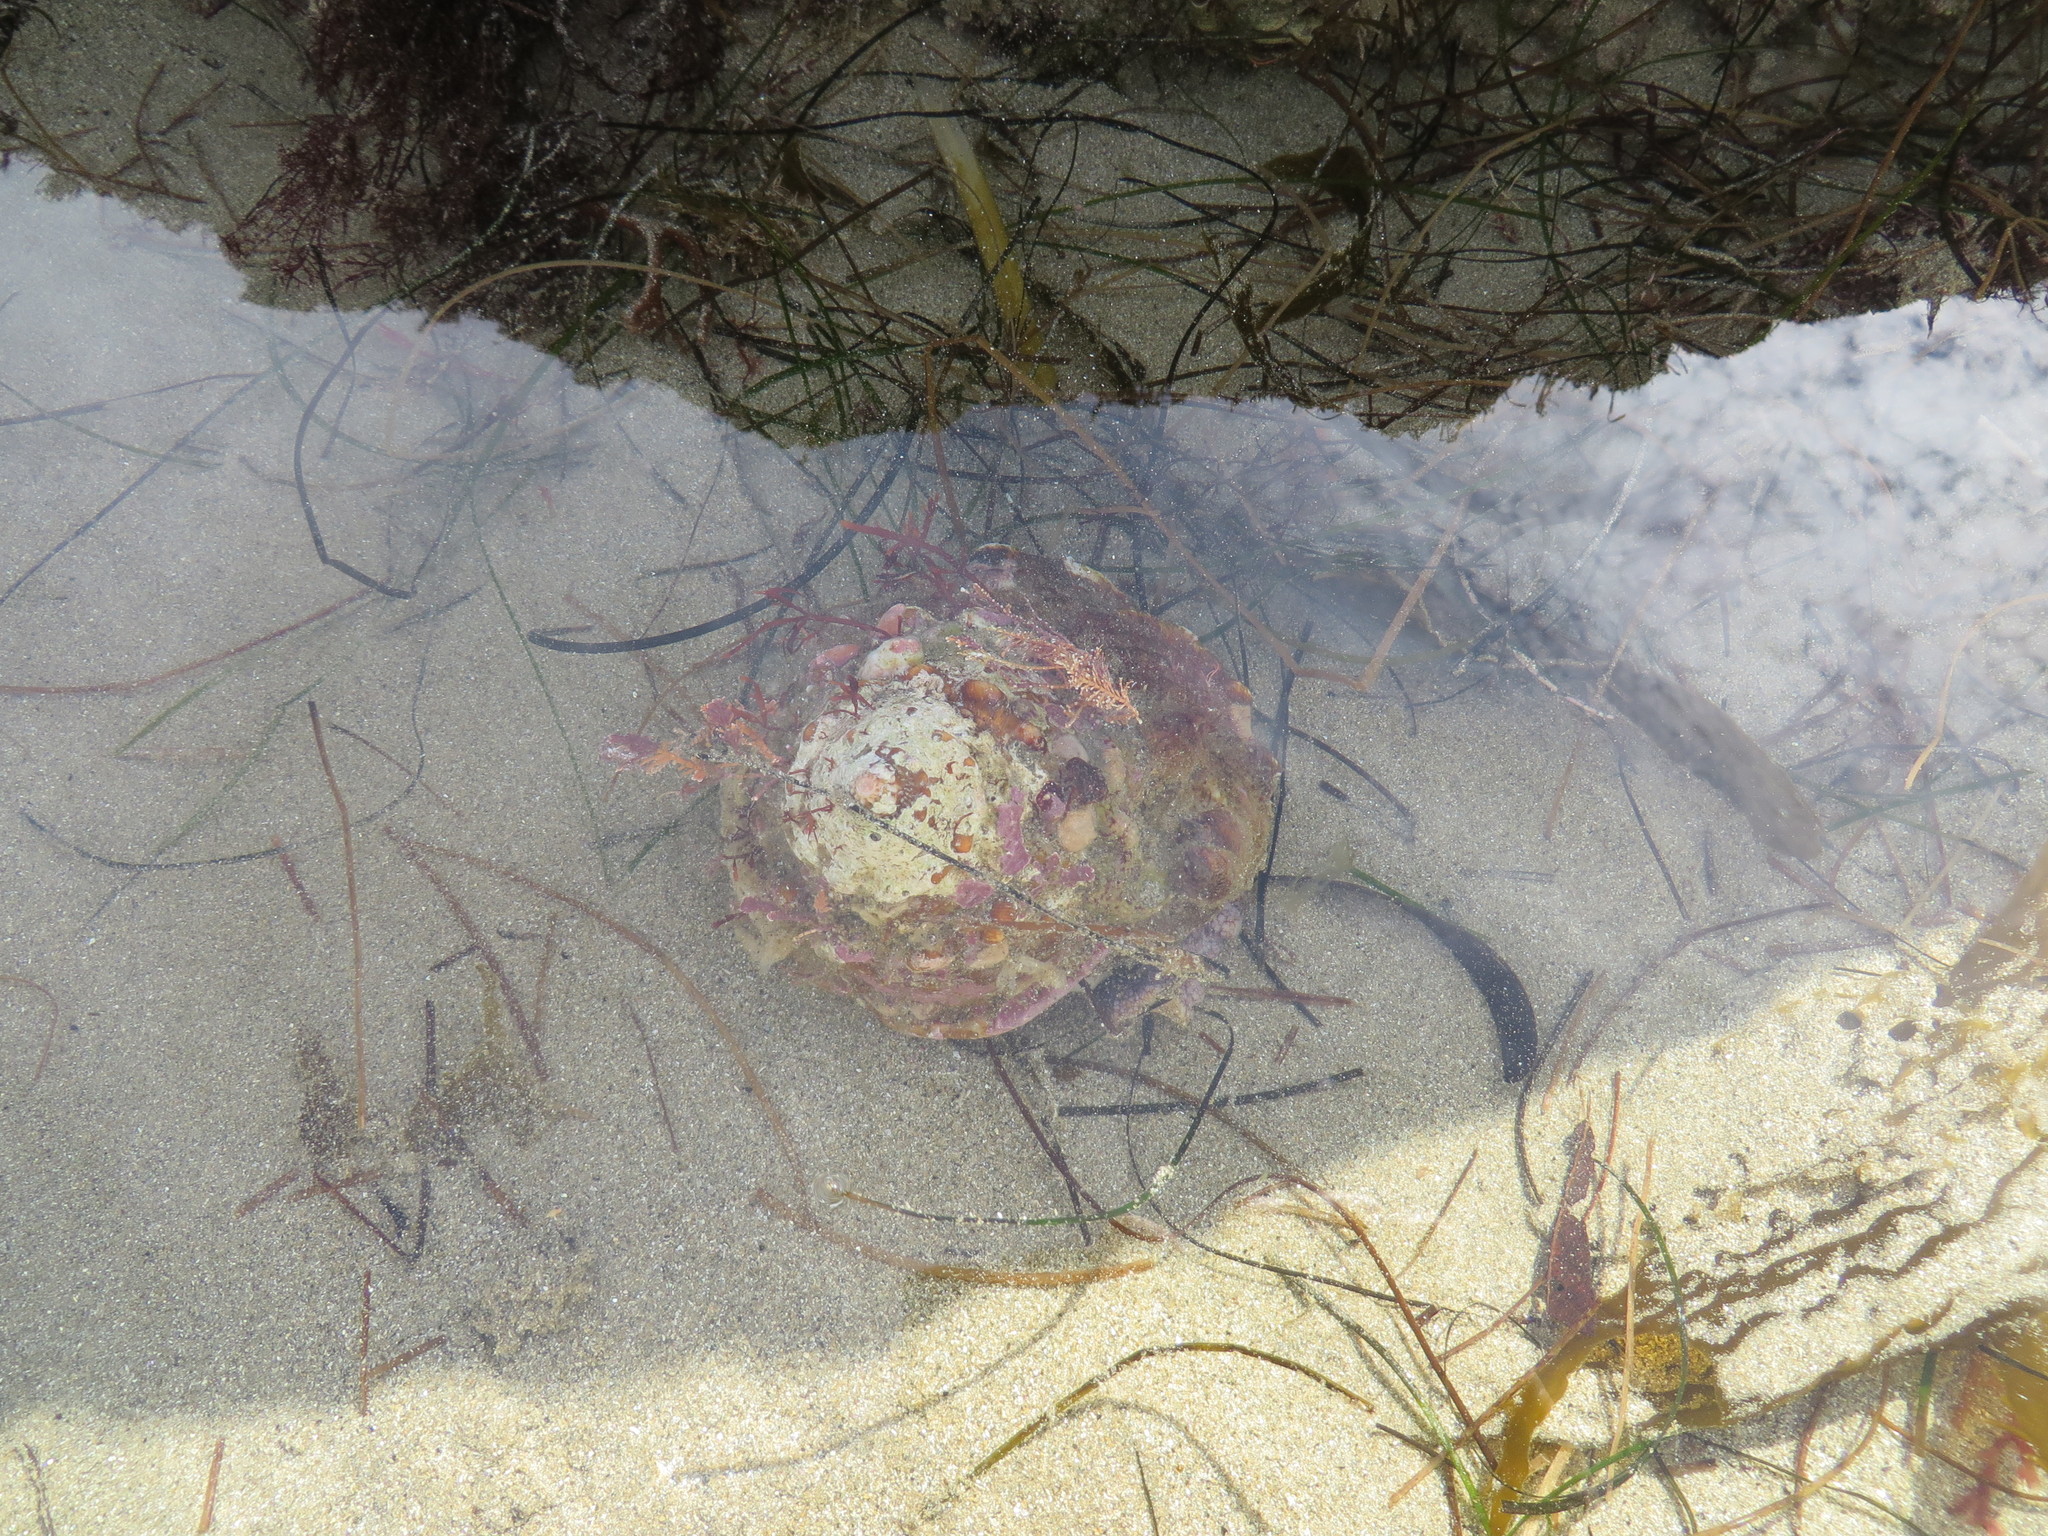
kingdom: Animalia
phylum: Mollusca
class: Gastropoda
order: Trochida
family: Turbinidae
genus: Megastraea
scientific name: Megastraea undosa
